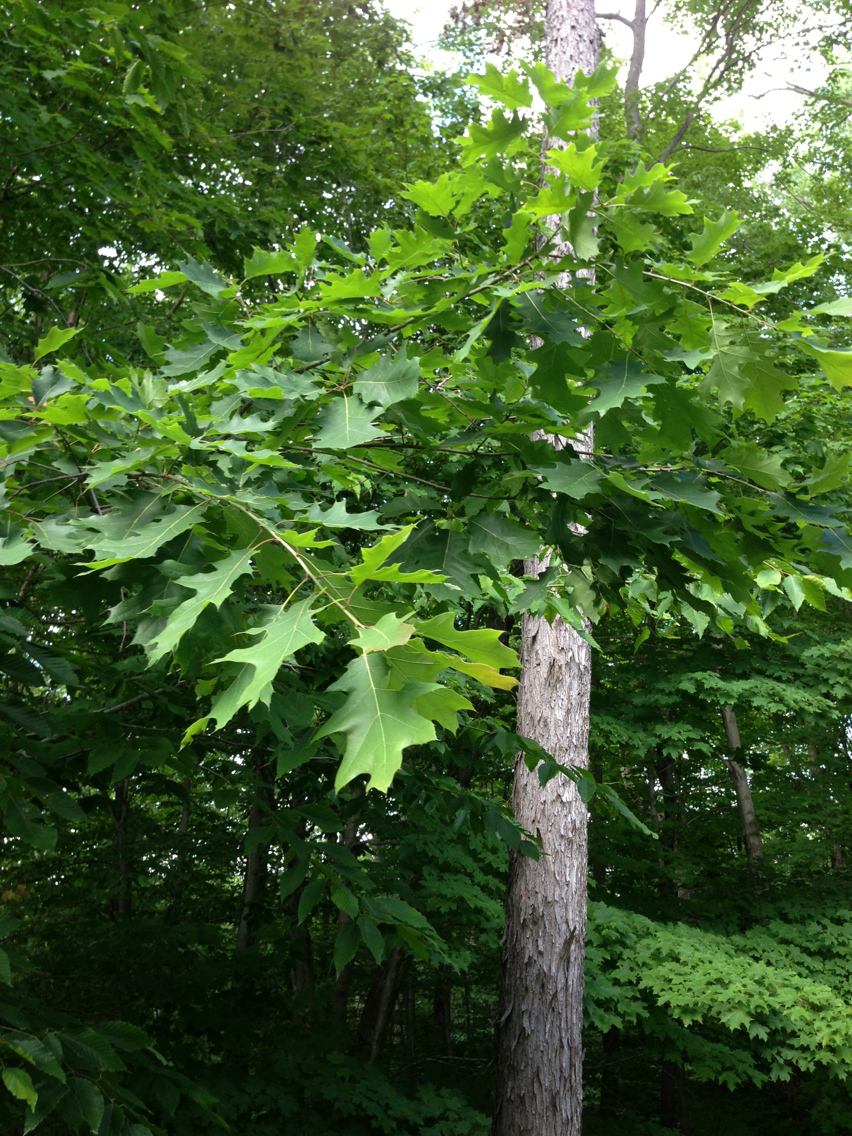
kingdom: Plantae
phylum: Tracheophyta
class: Magnoliopsida
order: Fagales
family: Fagaceae
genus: Quercus
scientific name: Quercus rubra
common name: Red oak
